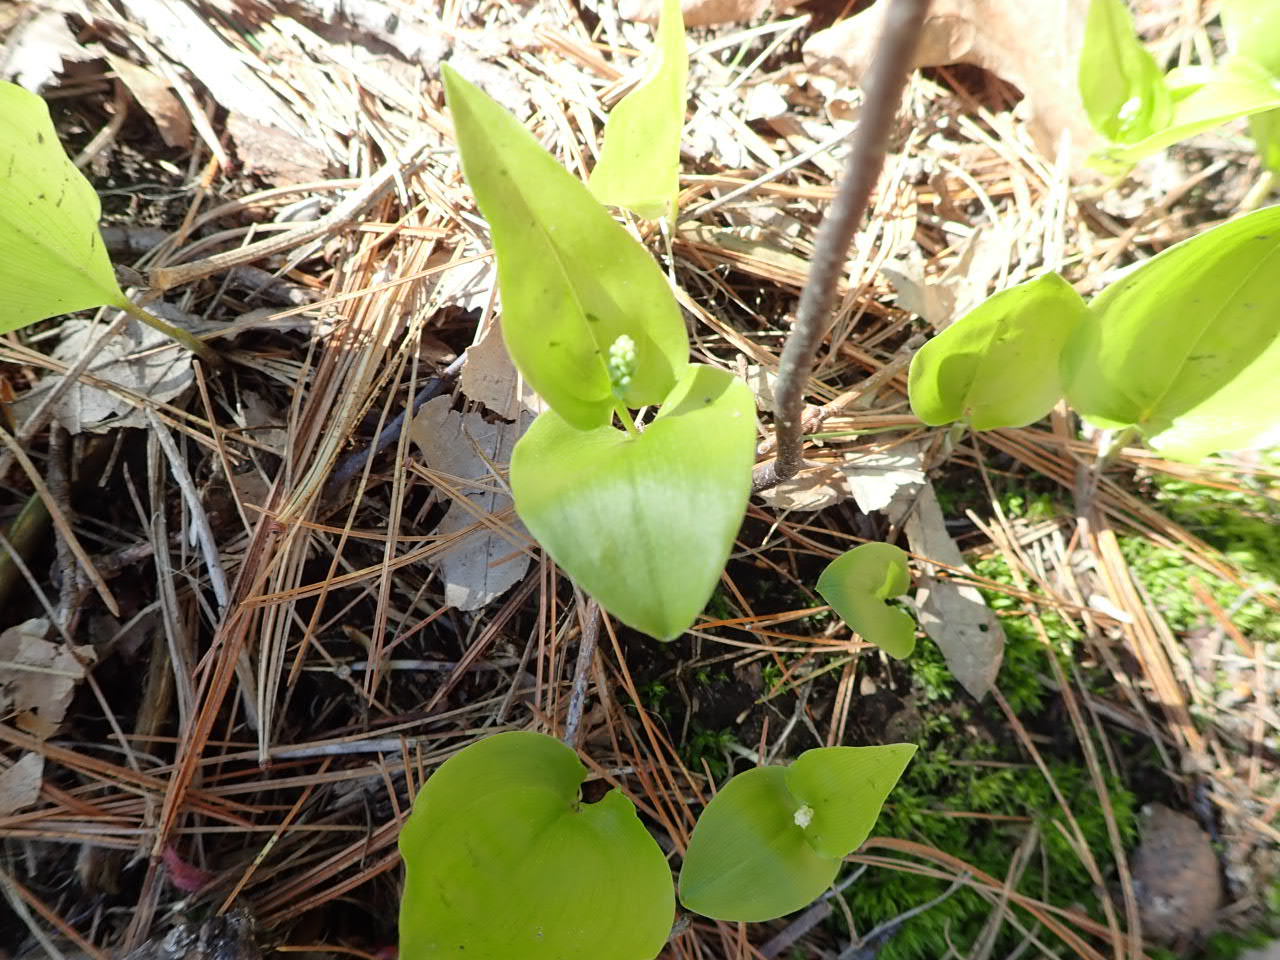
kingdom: Plantae
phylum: Tracheophyta
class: Liliopsida
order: Asparagales
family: Asparagaceae
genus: Maianthemum
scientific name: Maianthemum canadense
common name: False lily-of-the-valley
